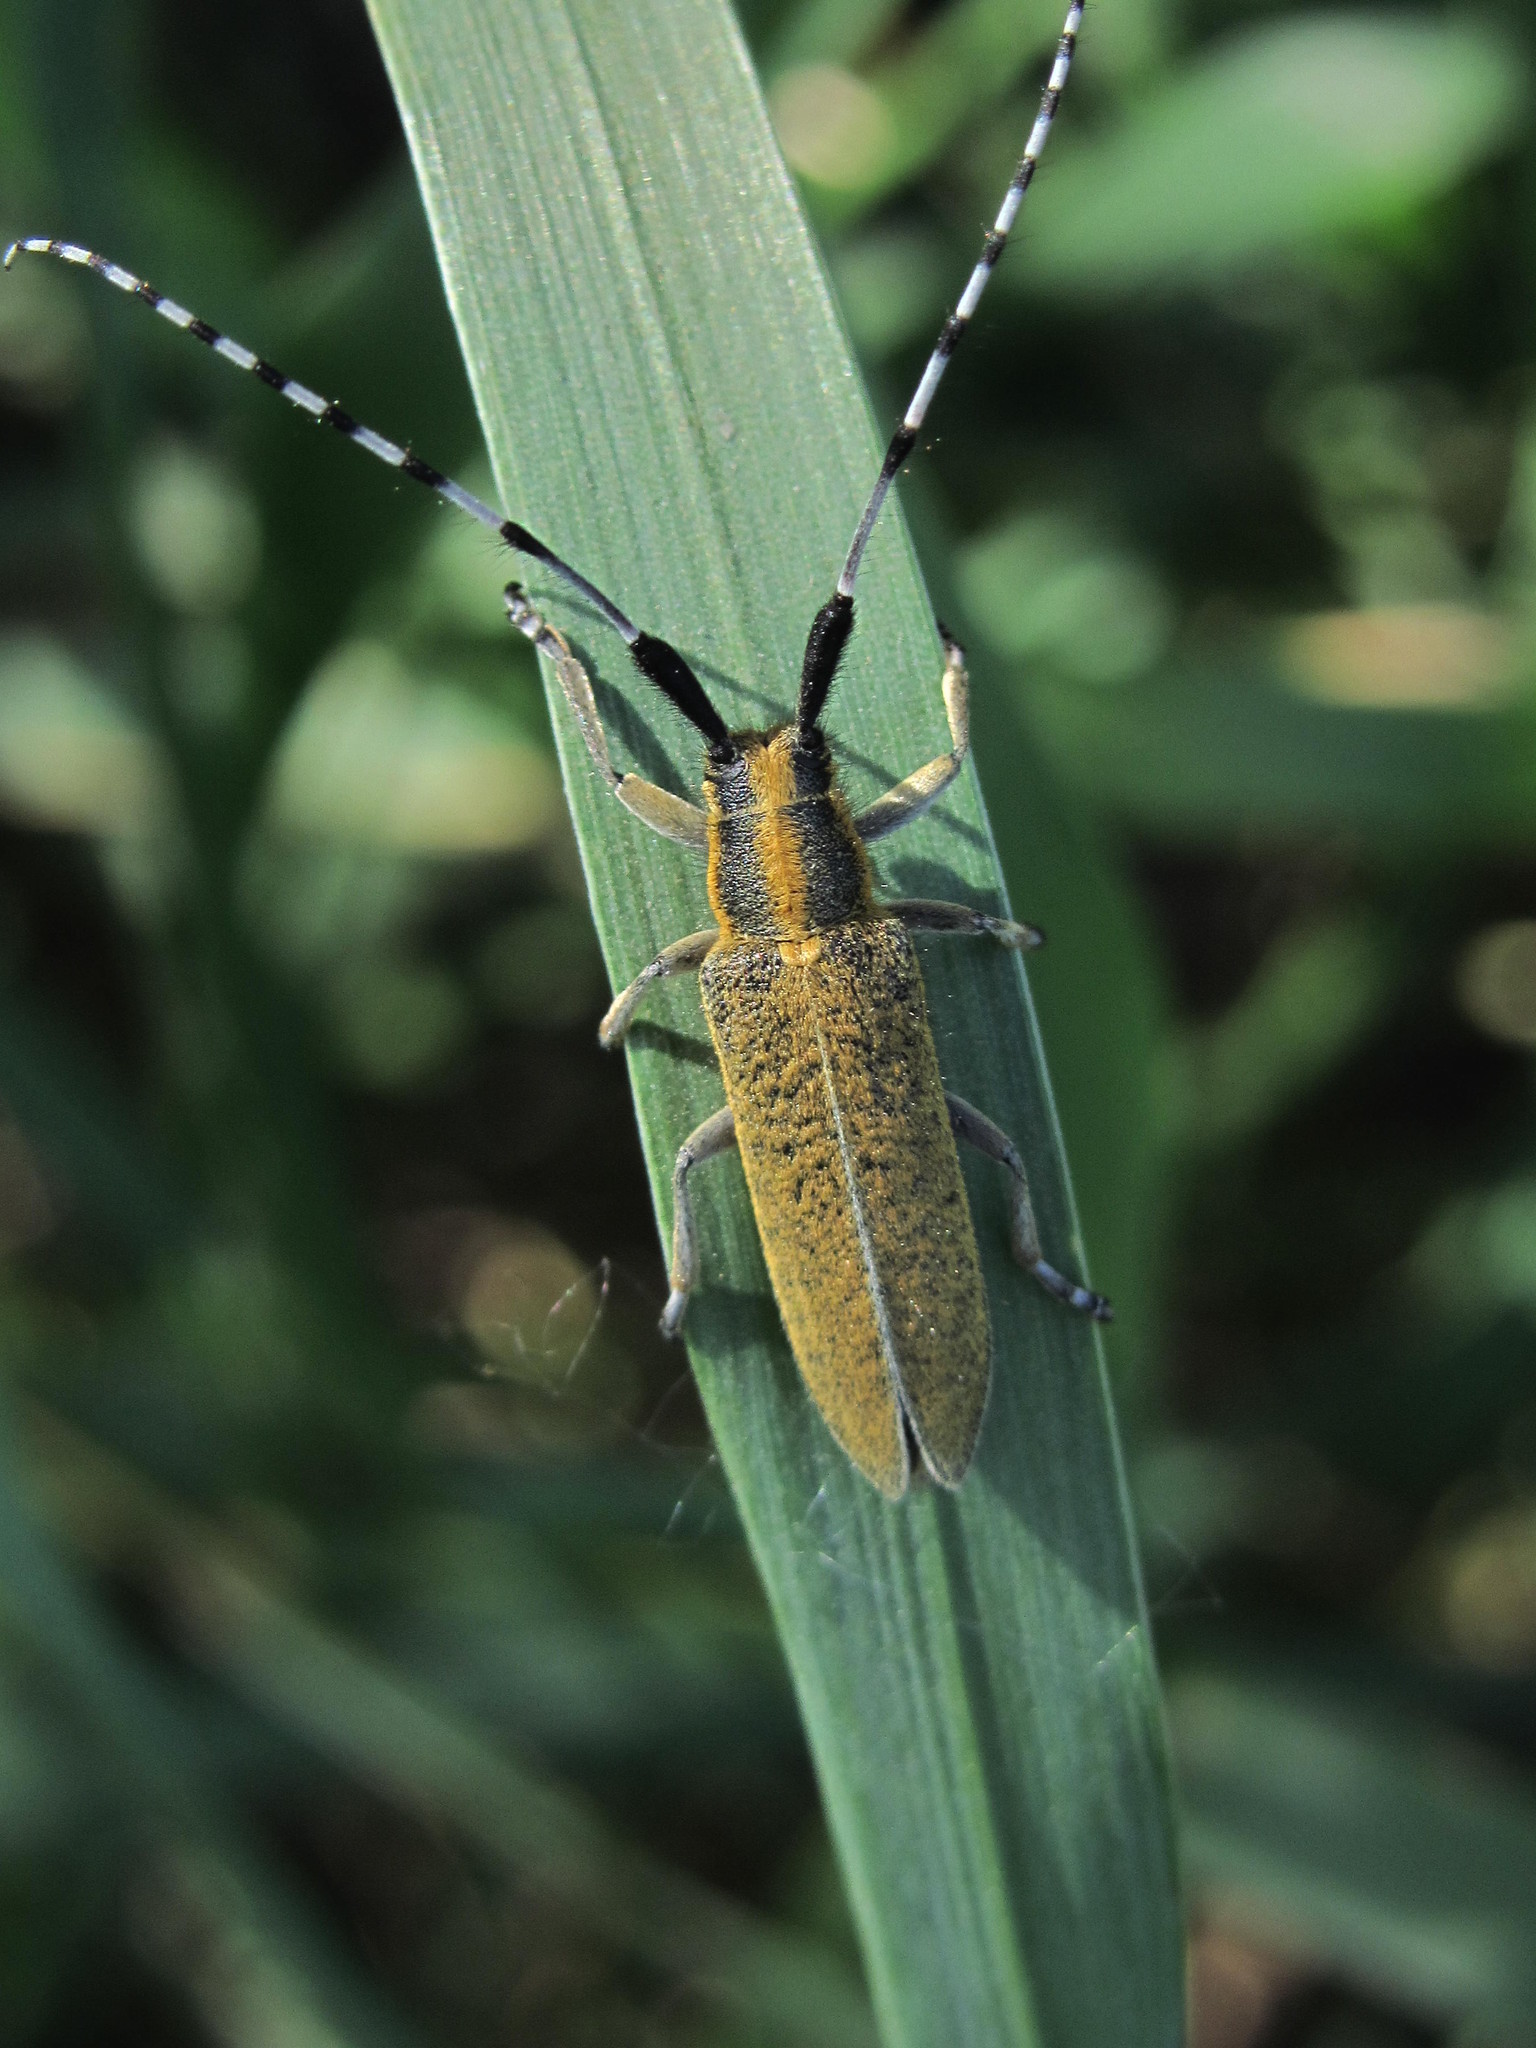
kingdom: Animalia
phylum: Arthropoda
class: Insecta
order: Coleoptera
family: Cerambycidae
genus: Agapanthia
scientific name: Agapanthia villosoviridescens
